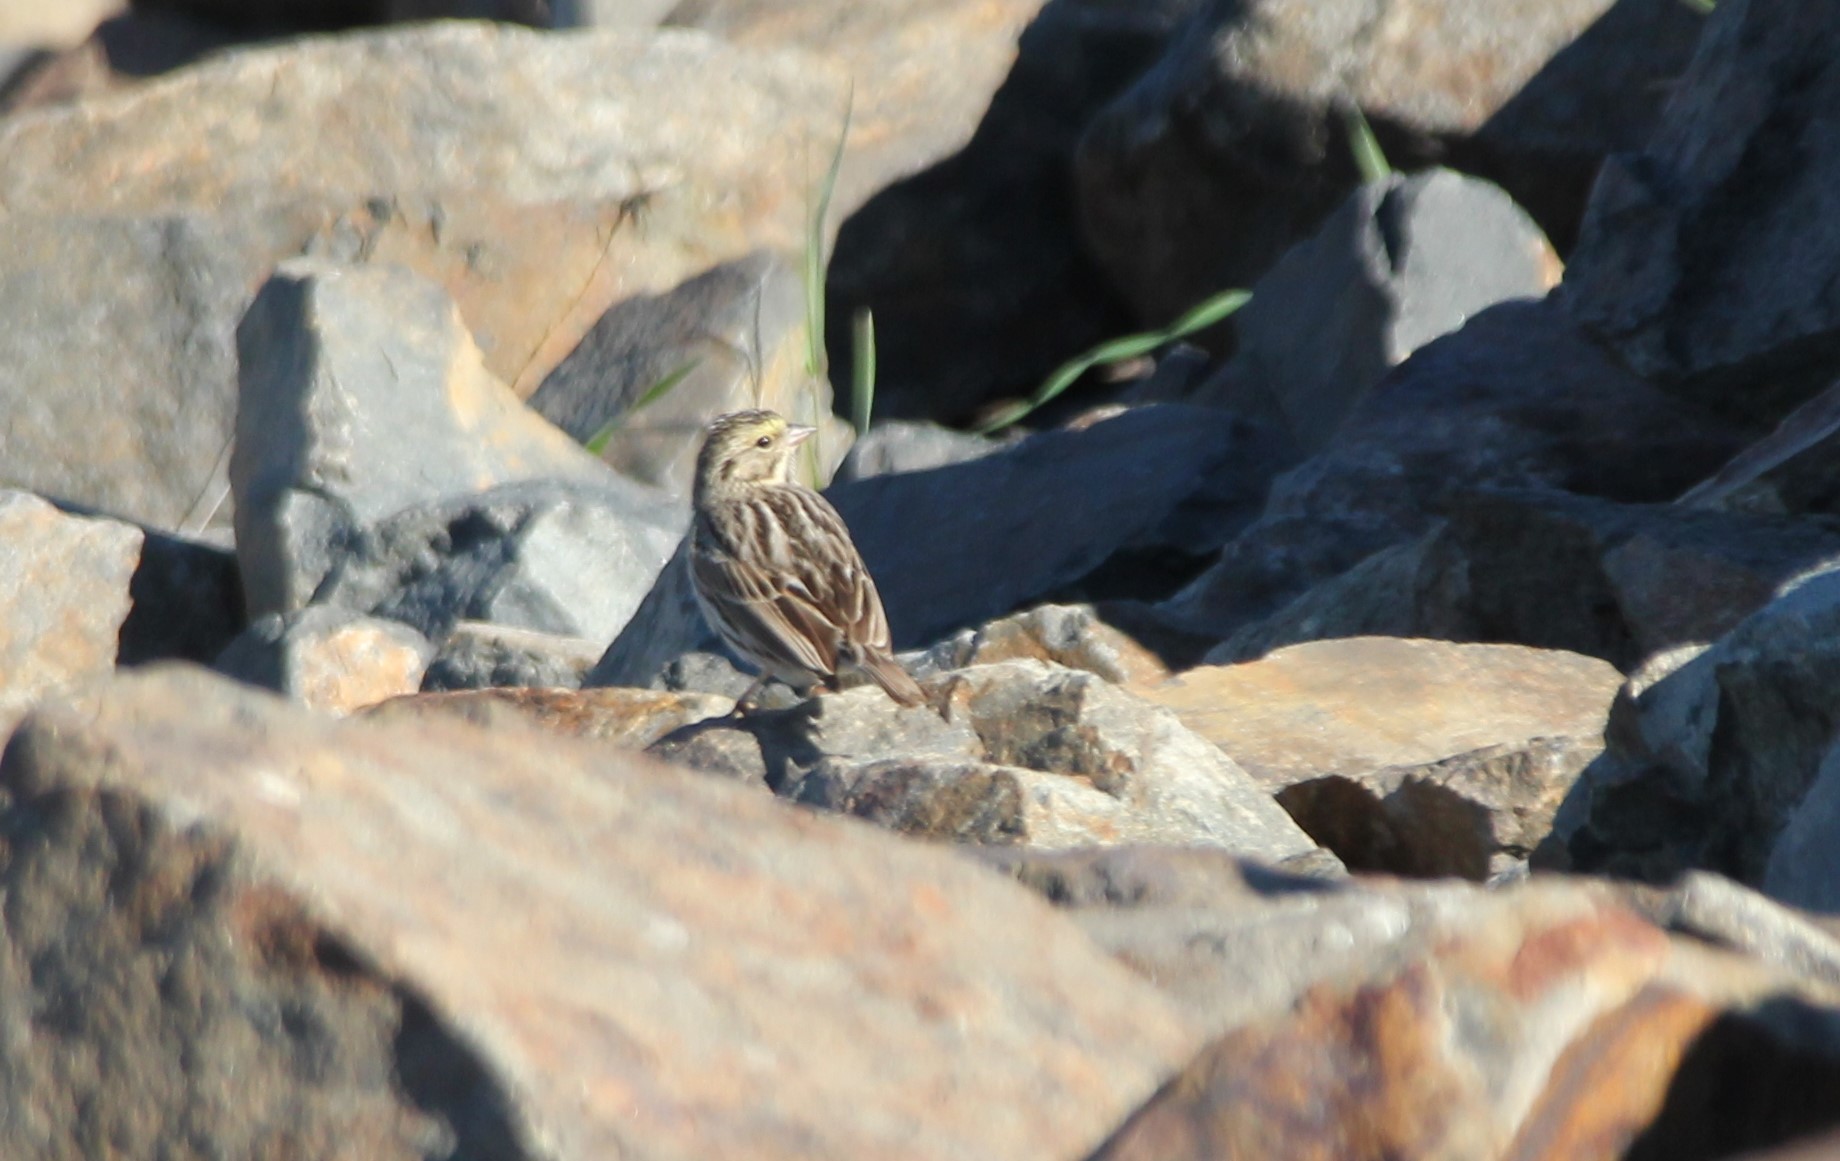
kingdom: Animalia
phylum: Chordata
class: Aves
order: Passeriformes
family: Passerellidae
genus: Passerculus
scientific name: Passerculus sandwichensis
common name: Savannah sparrow
